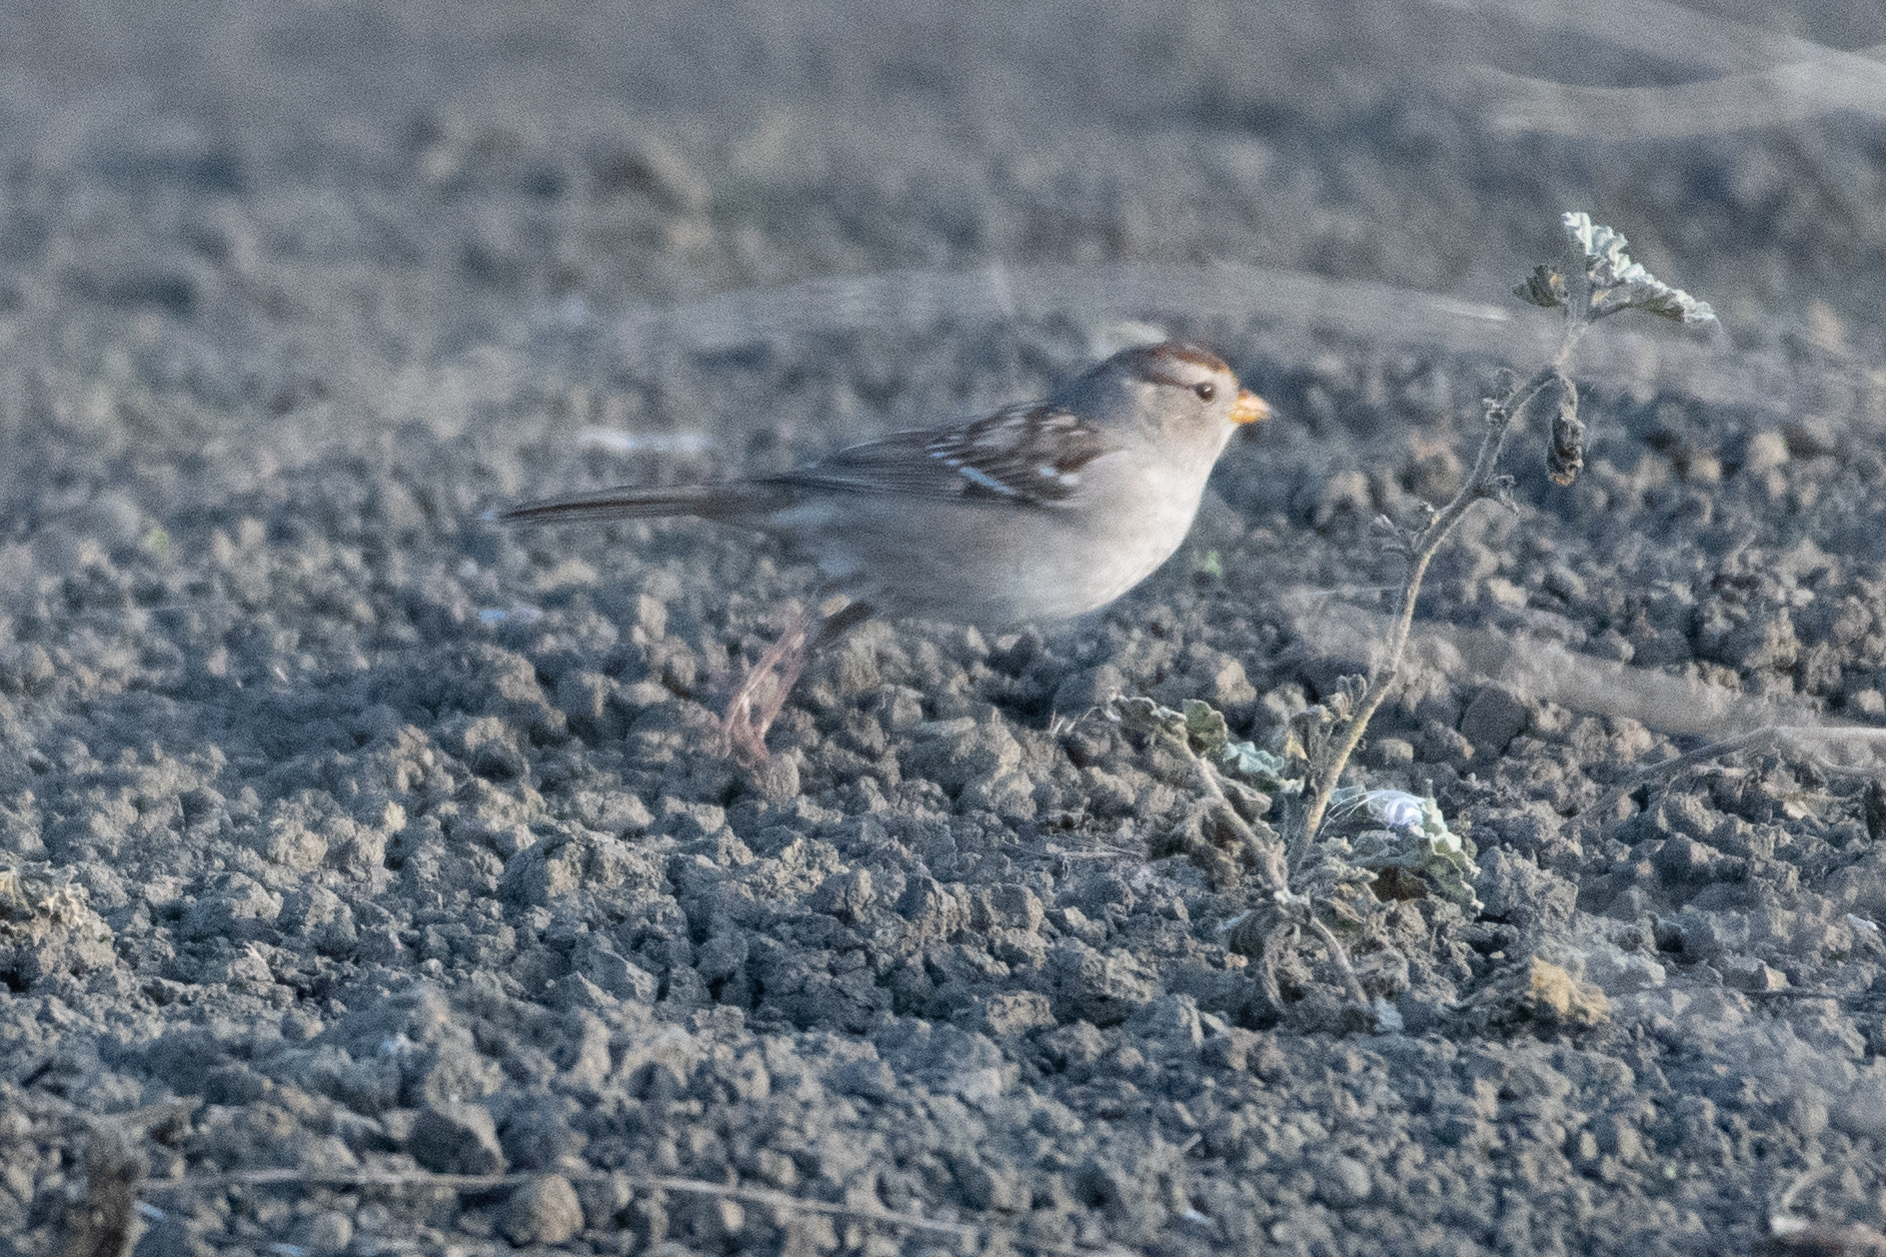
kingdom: Animalia
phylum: Chordata
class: Aves
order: Passeriformes
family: Passerellidae
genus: Zonotrichia
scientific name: Zonotrichia leucophrys
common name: White-crowned sparrow
